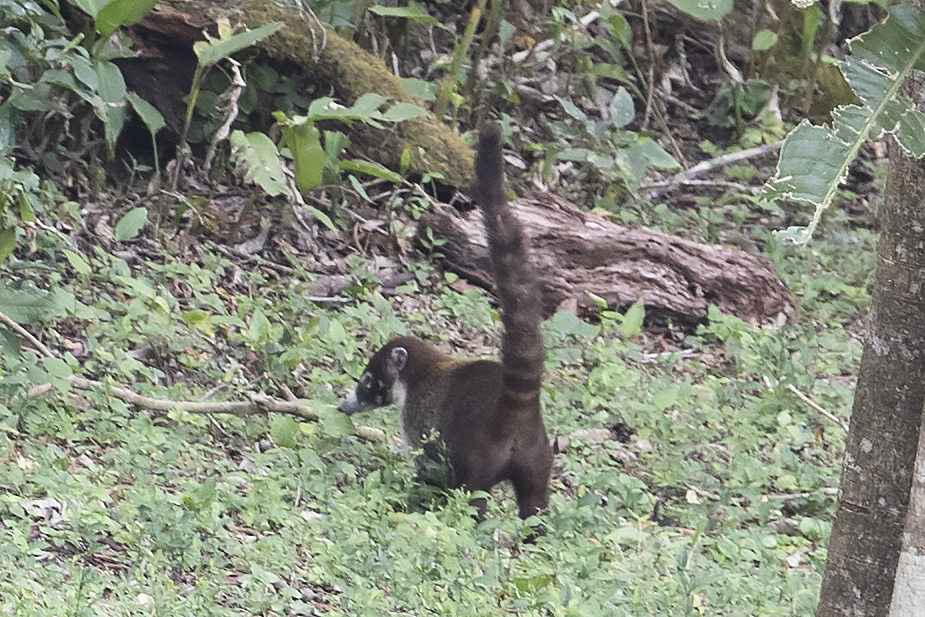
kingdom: Animalia
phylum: Chordata
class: Mammalia
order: Carnivora
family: Procyonidae
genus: Nasua
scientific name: Nasua narica
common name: White-nosed coati
